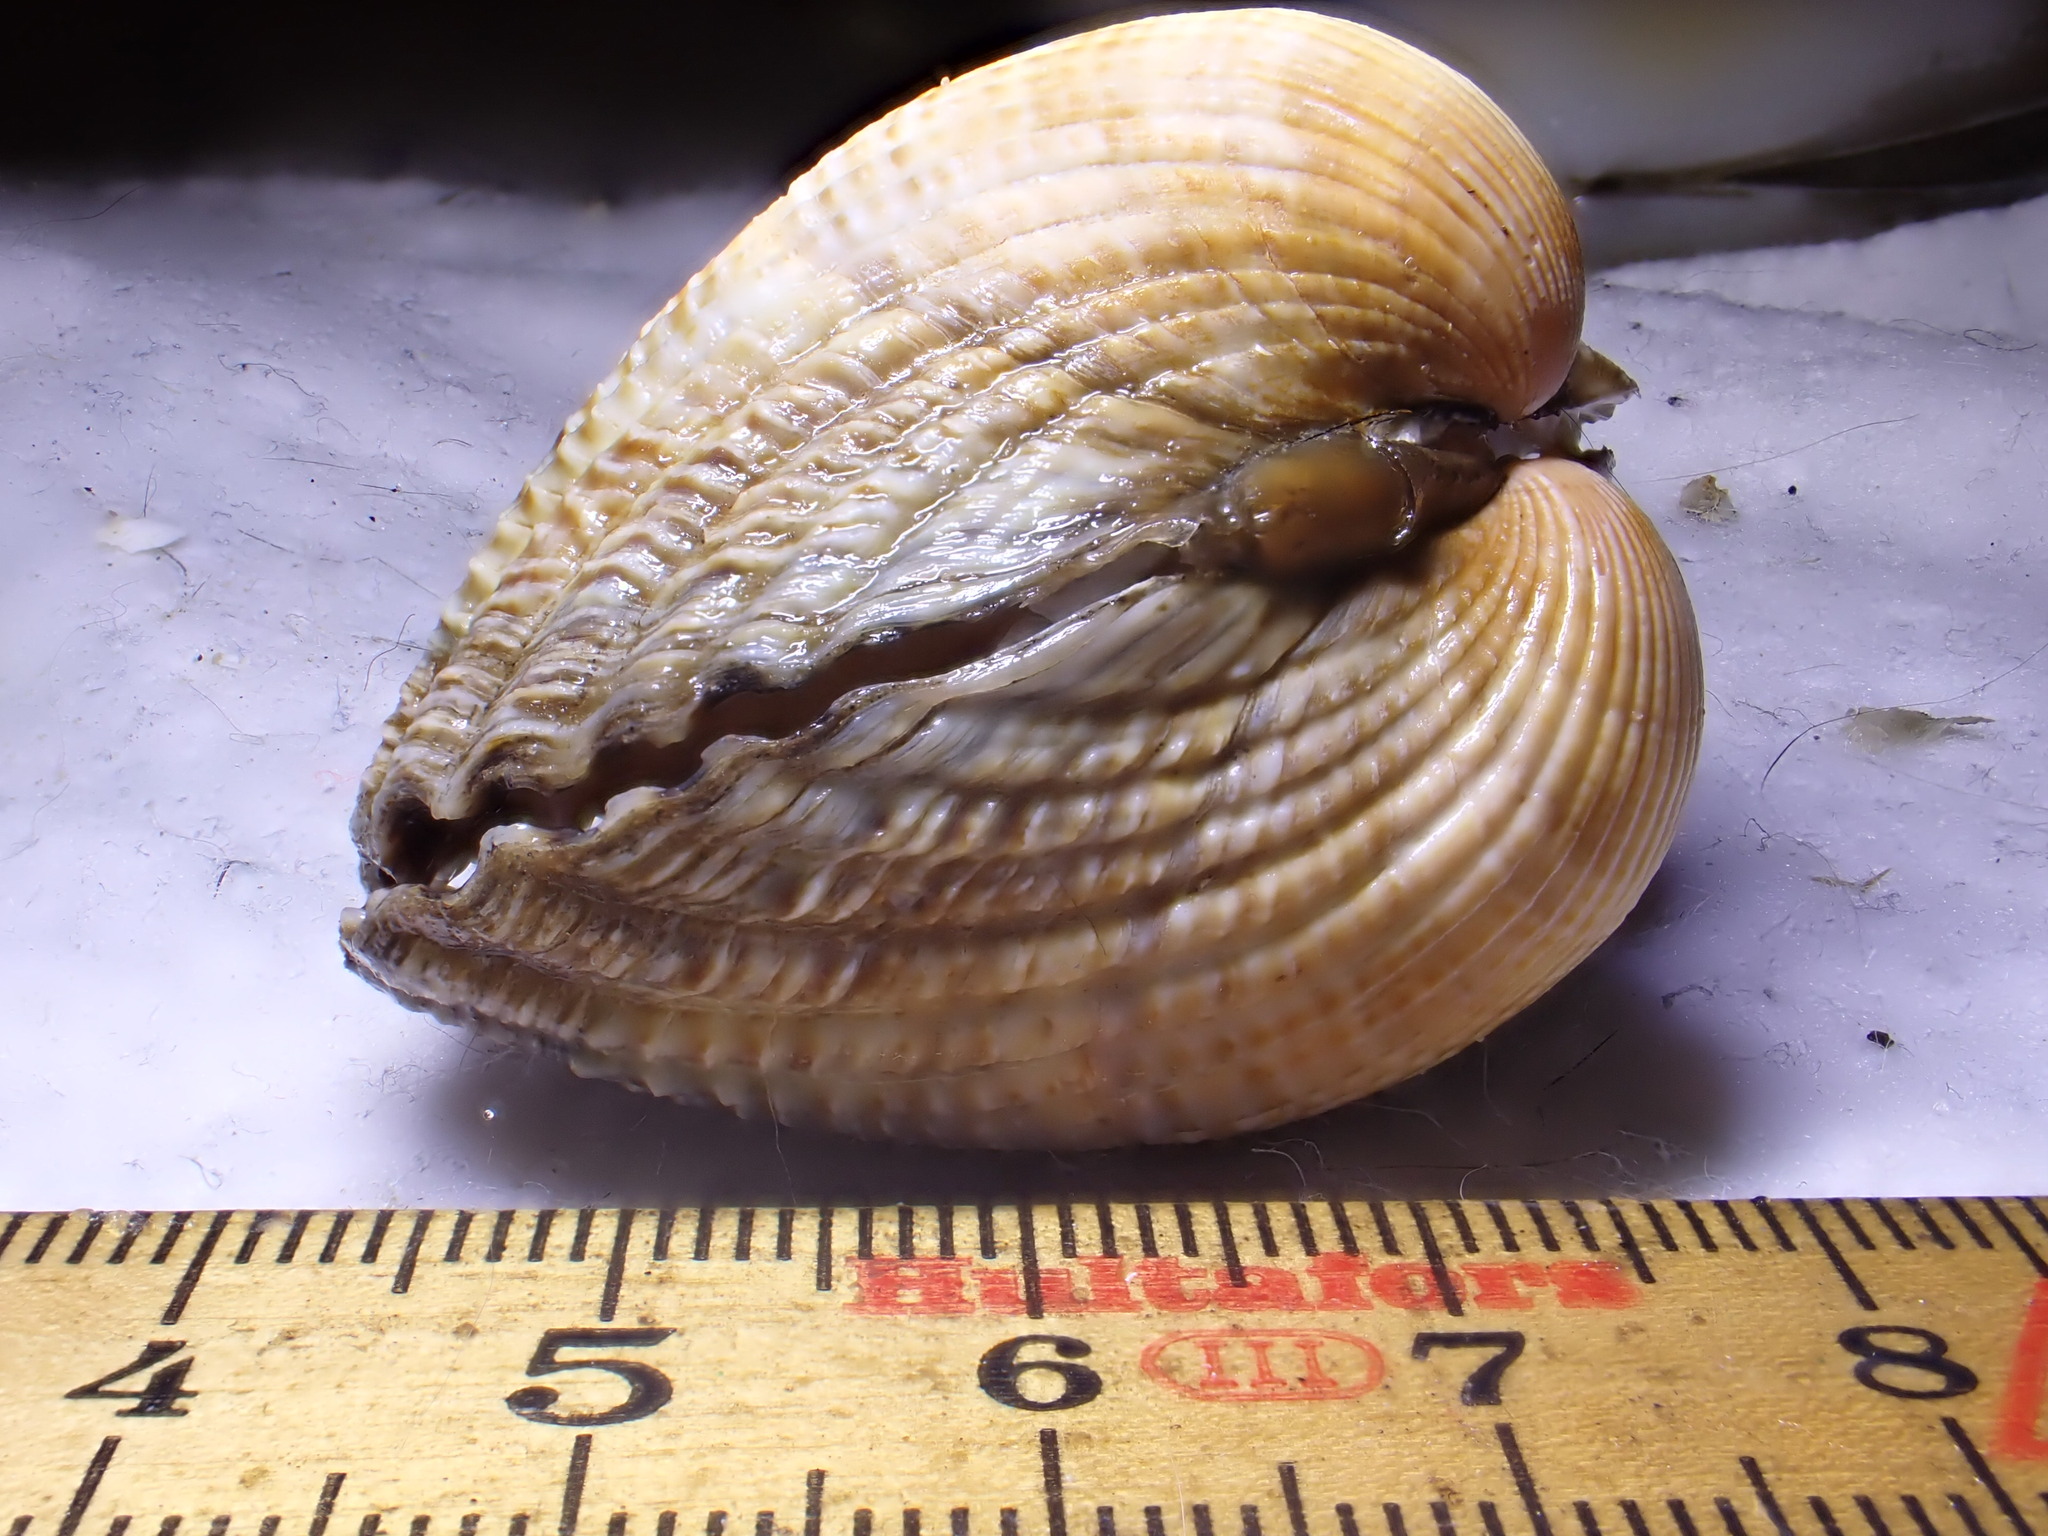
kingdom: Animalia
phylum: Mollusca
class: Bivalvia
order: Cardiida
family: Cardiidae
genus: Cerastoderma
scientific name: Cerastoderma edule
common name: Common cockle
